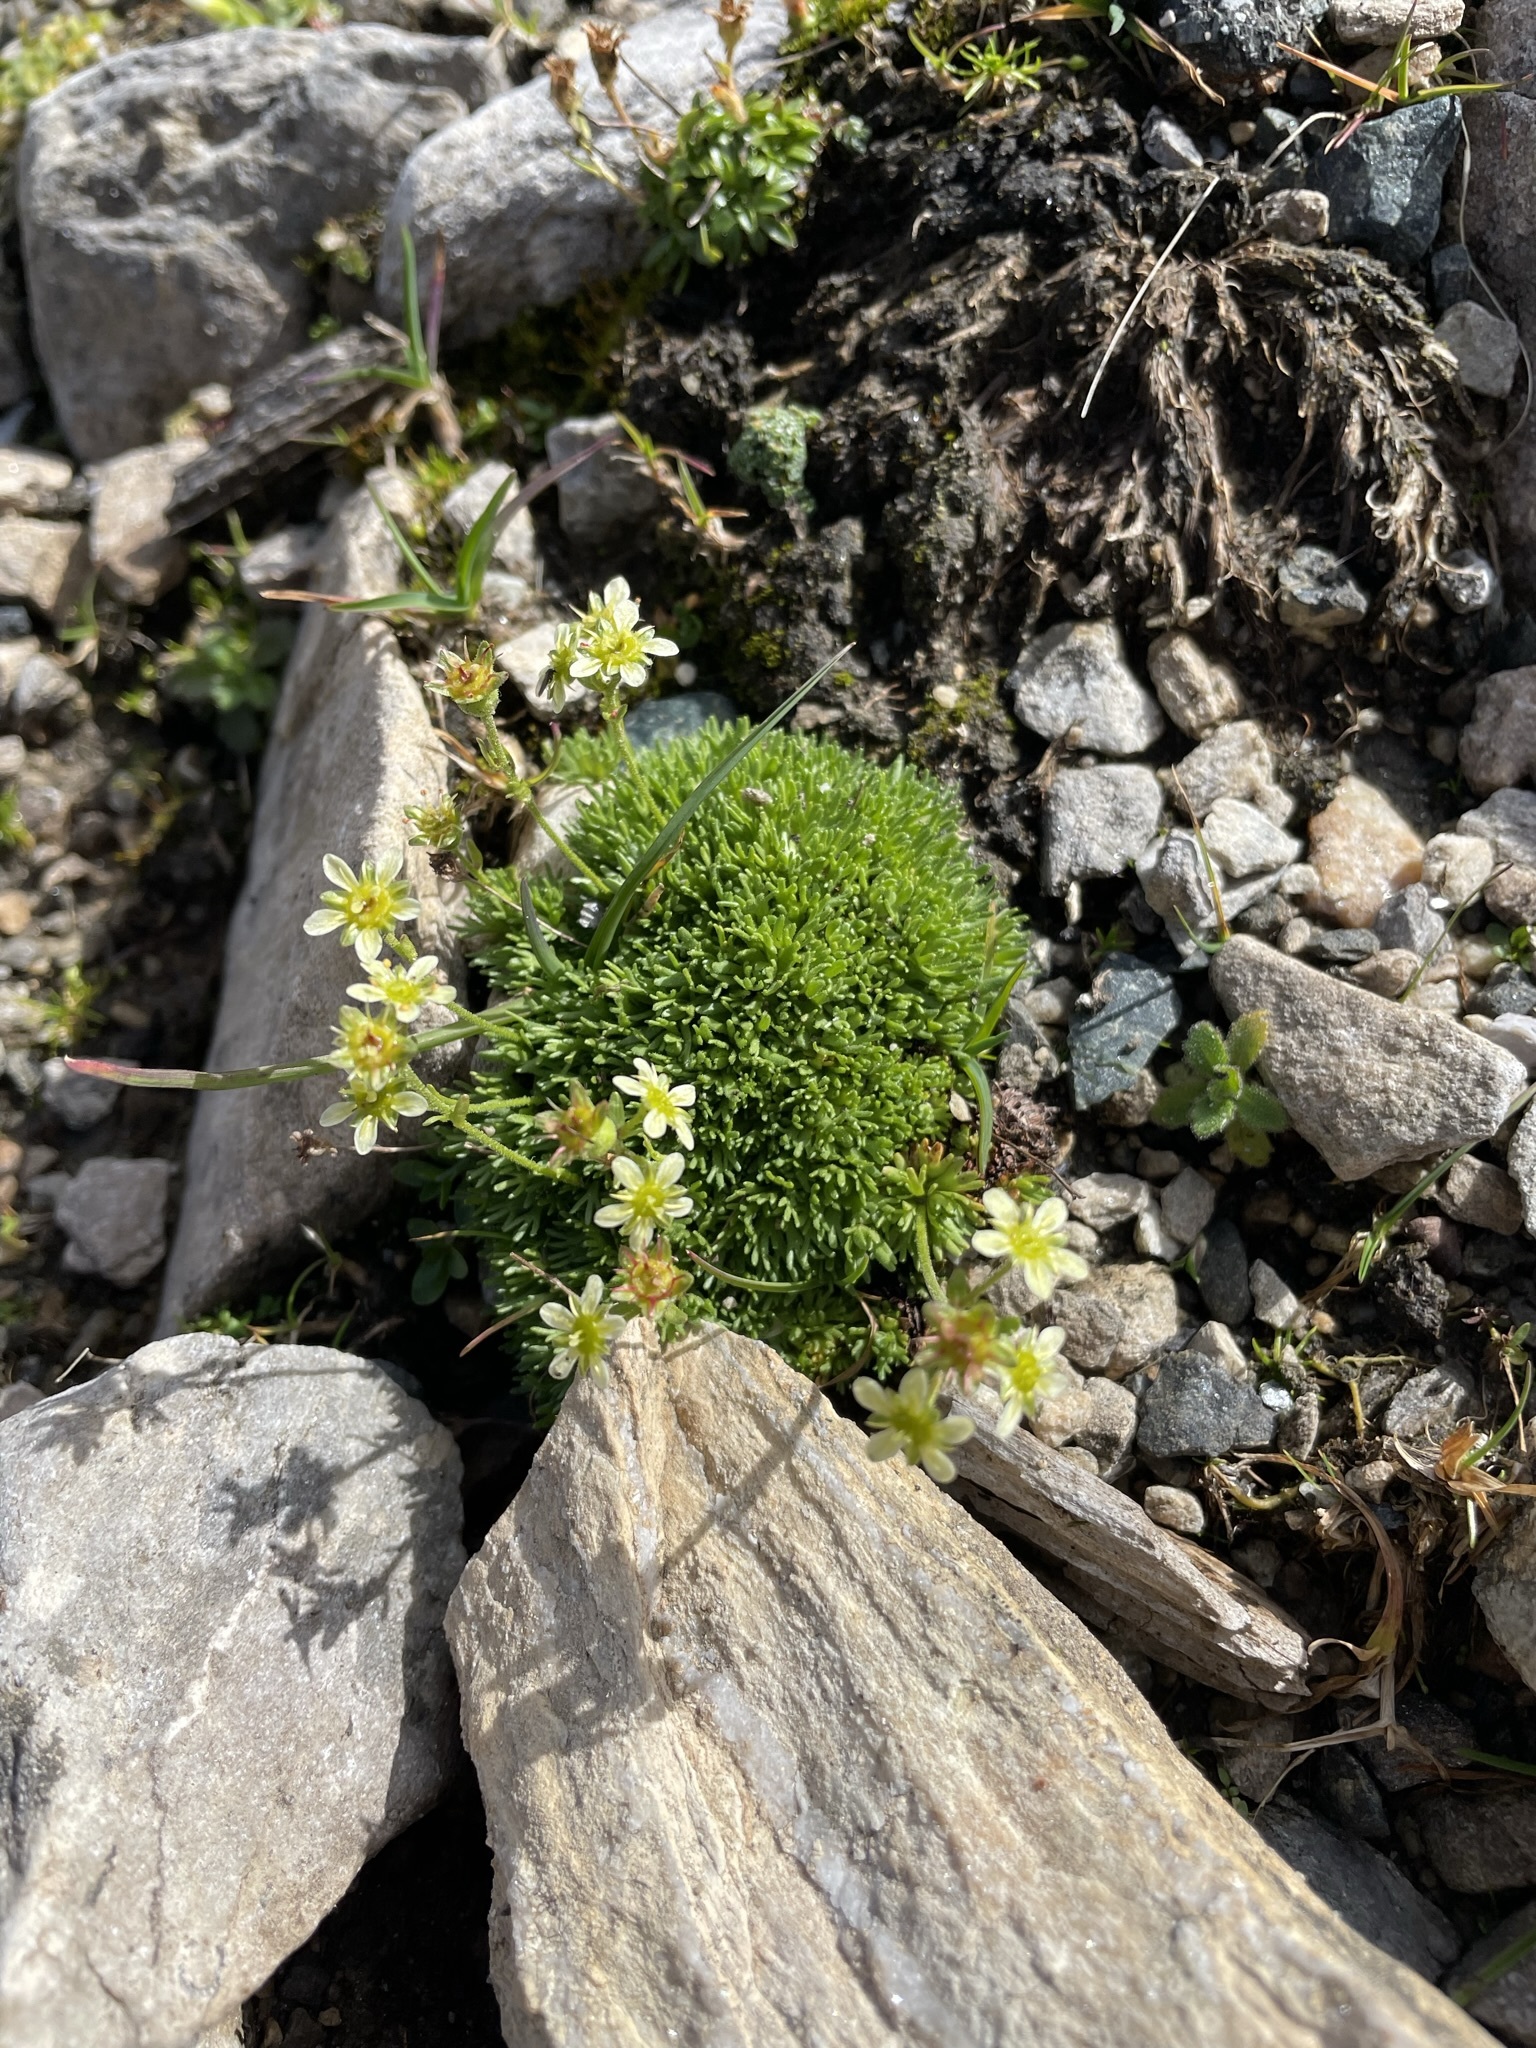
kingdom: Plantae
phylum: Tracheophyta
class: Magnoliopsida
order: Saxifragales
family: Saxifragaceae
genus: Saxifraga
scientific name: Saxifraga moschata
